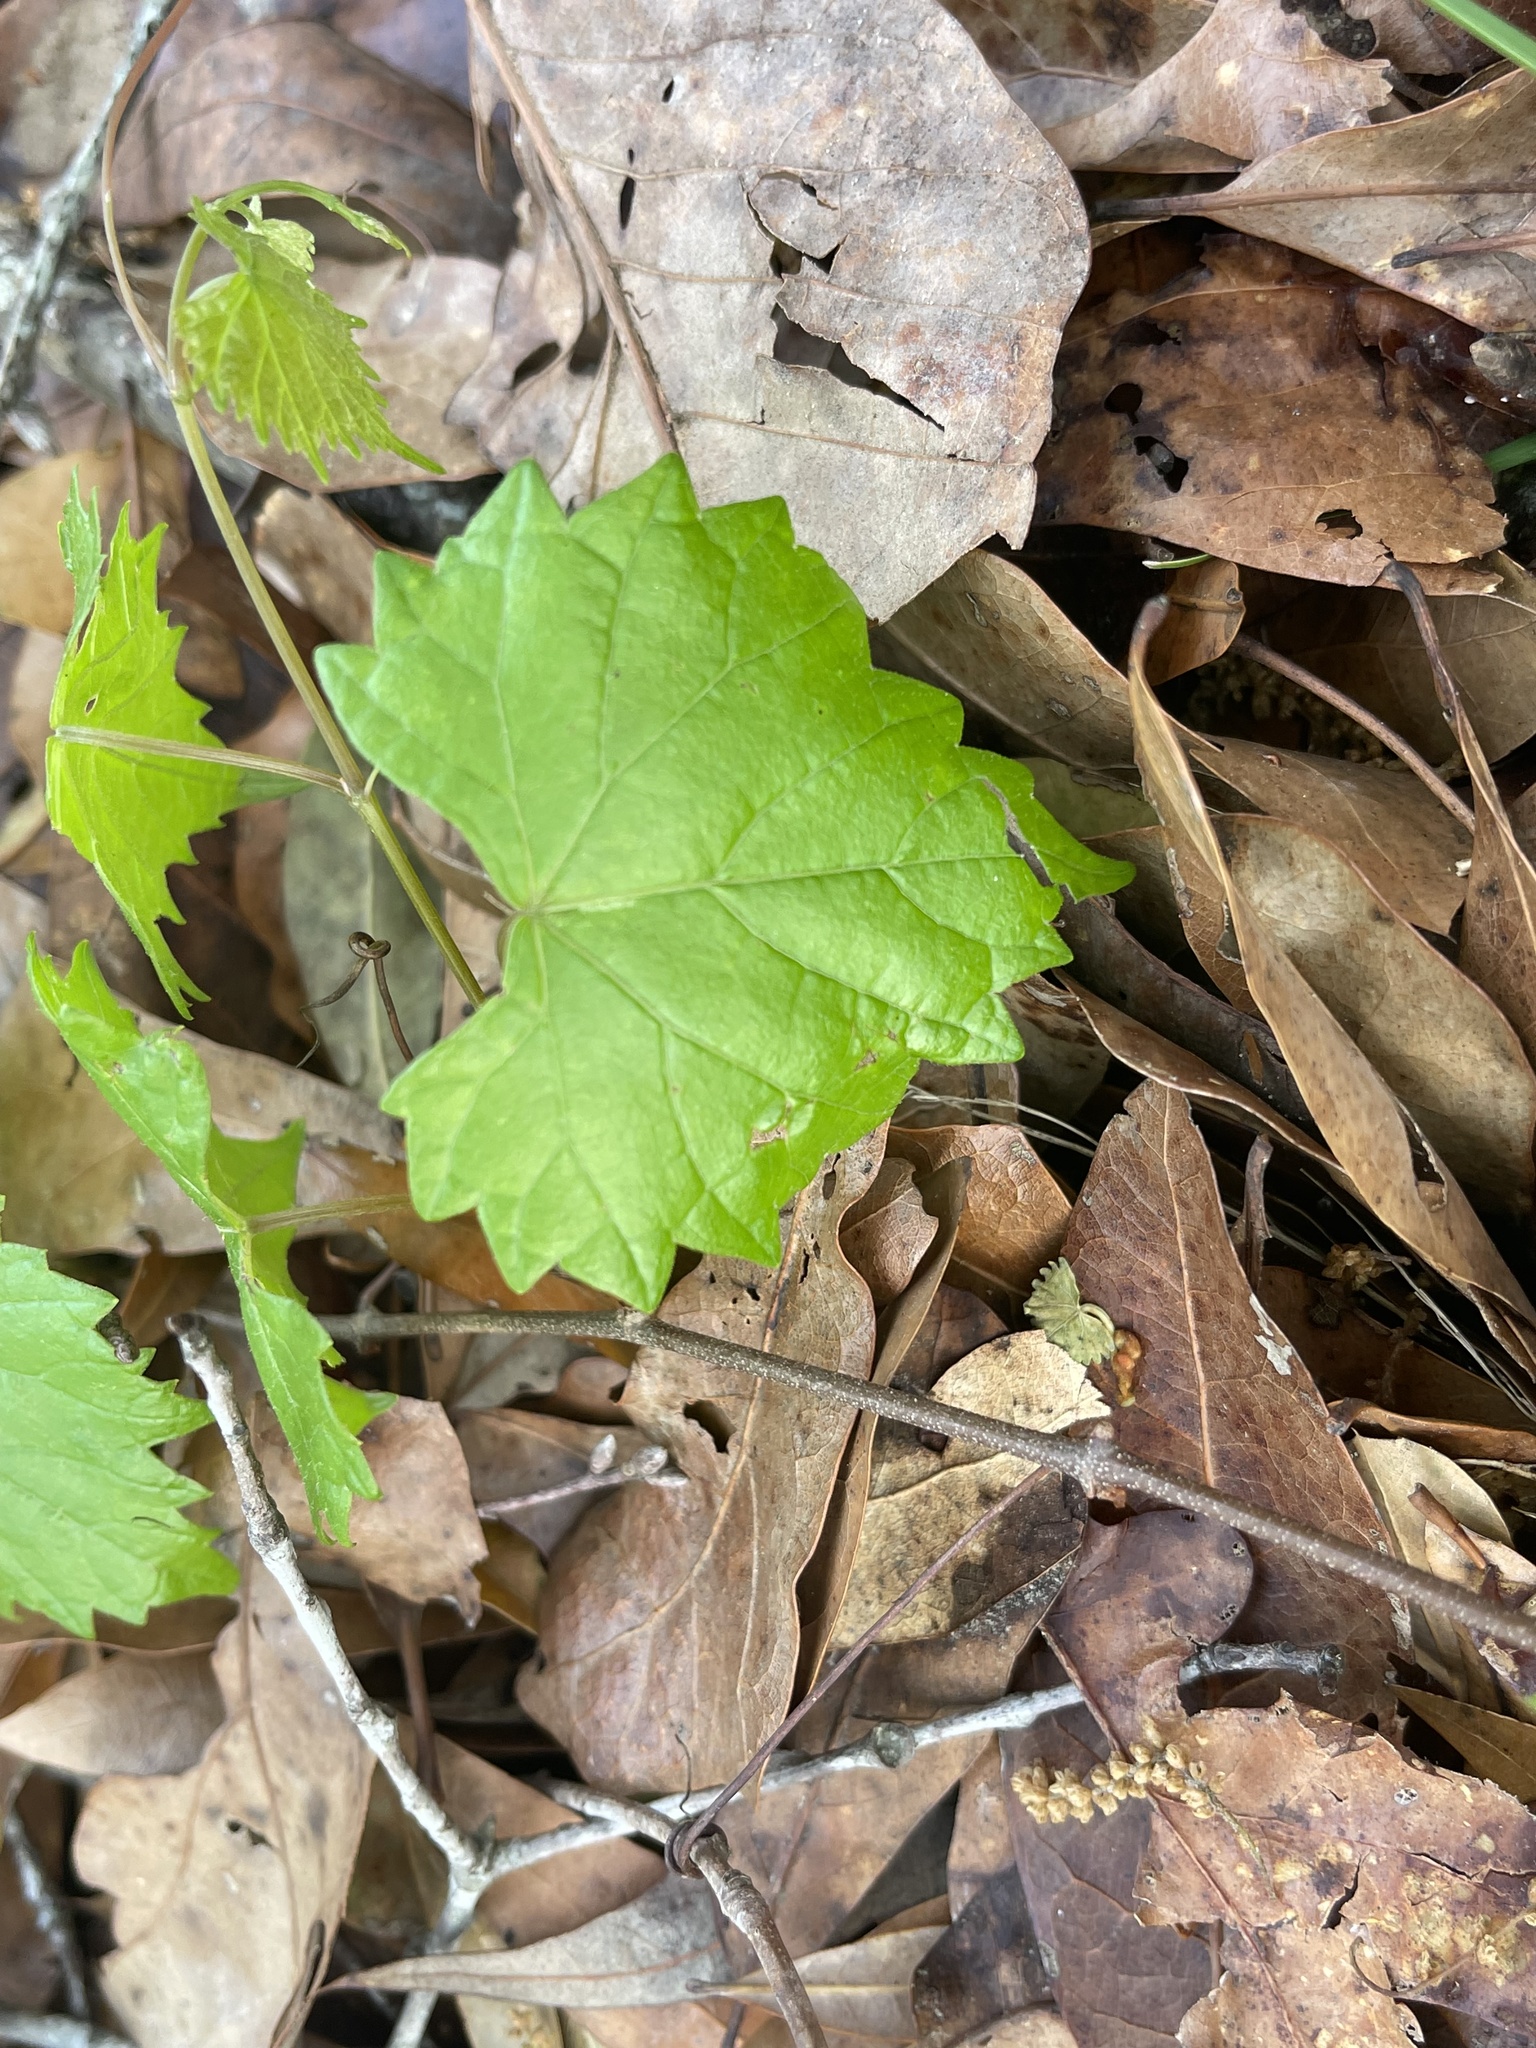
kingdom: Plantae
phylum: Tracheophyta
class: Magnoliopsida
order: Vitales
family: Vitaceae
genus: Vitis
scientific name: Vitis rotundifolia
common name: Muscadine grape
